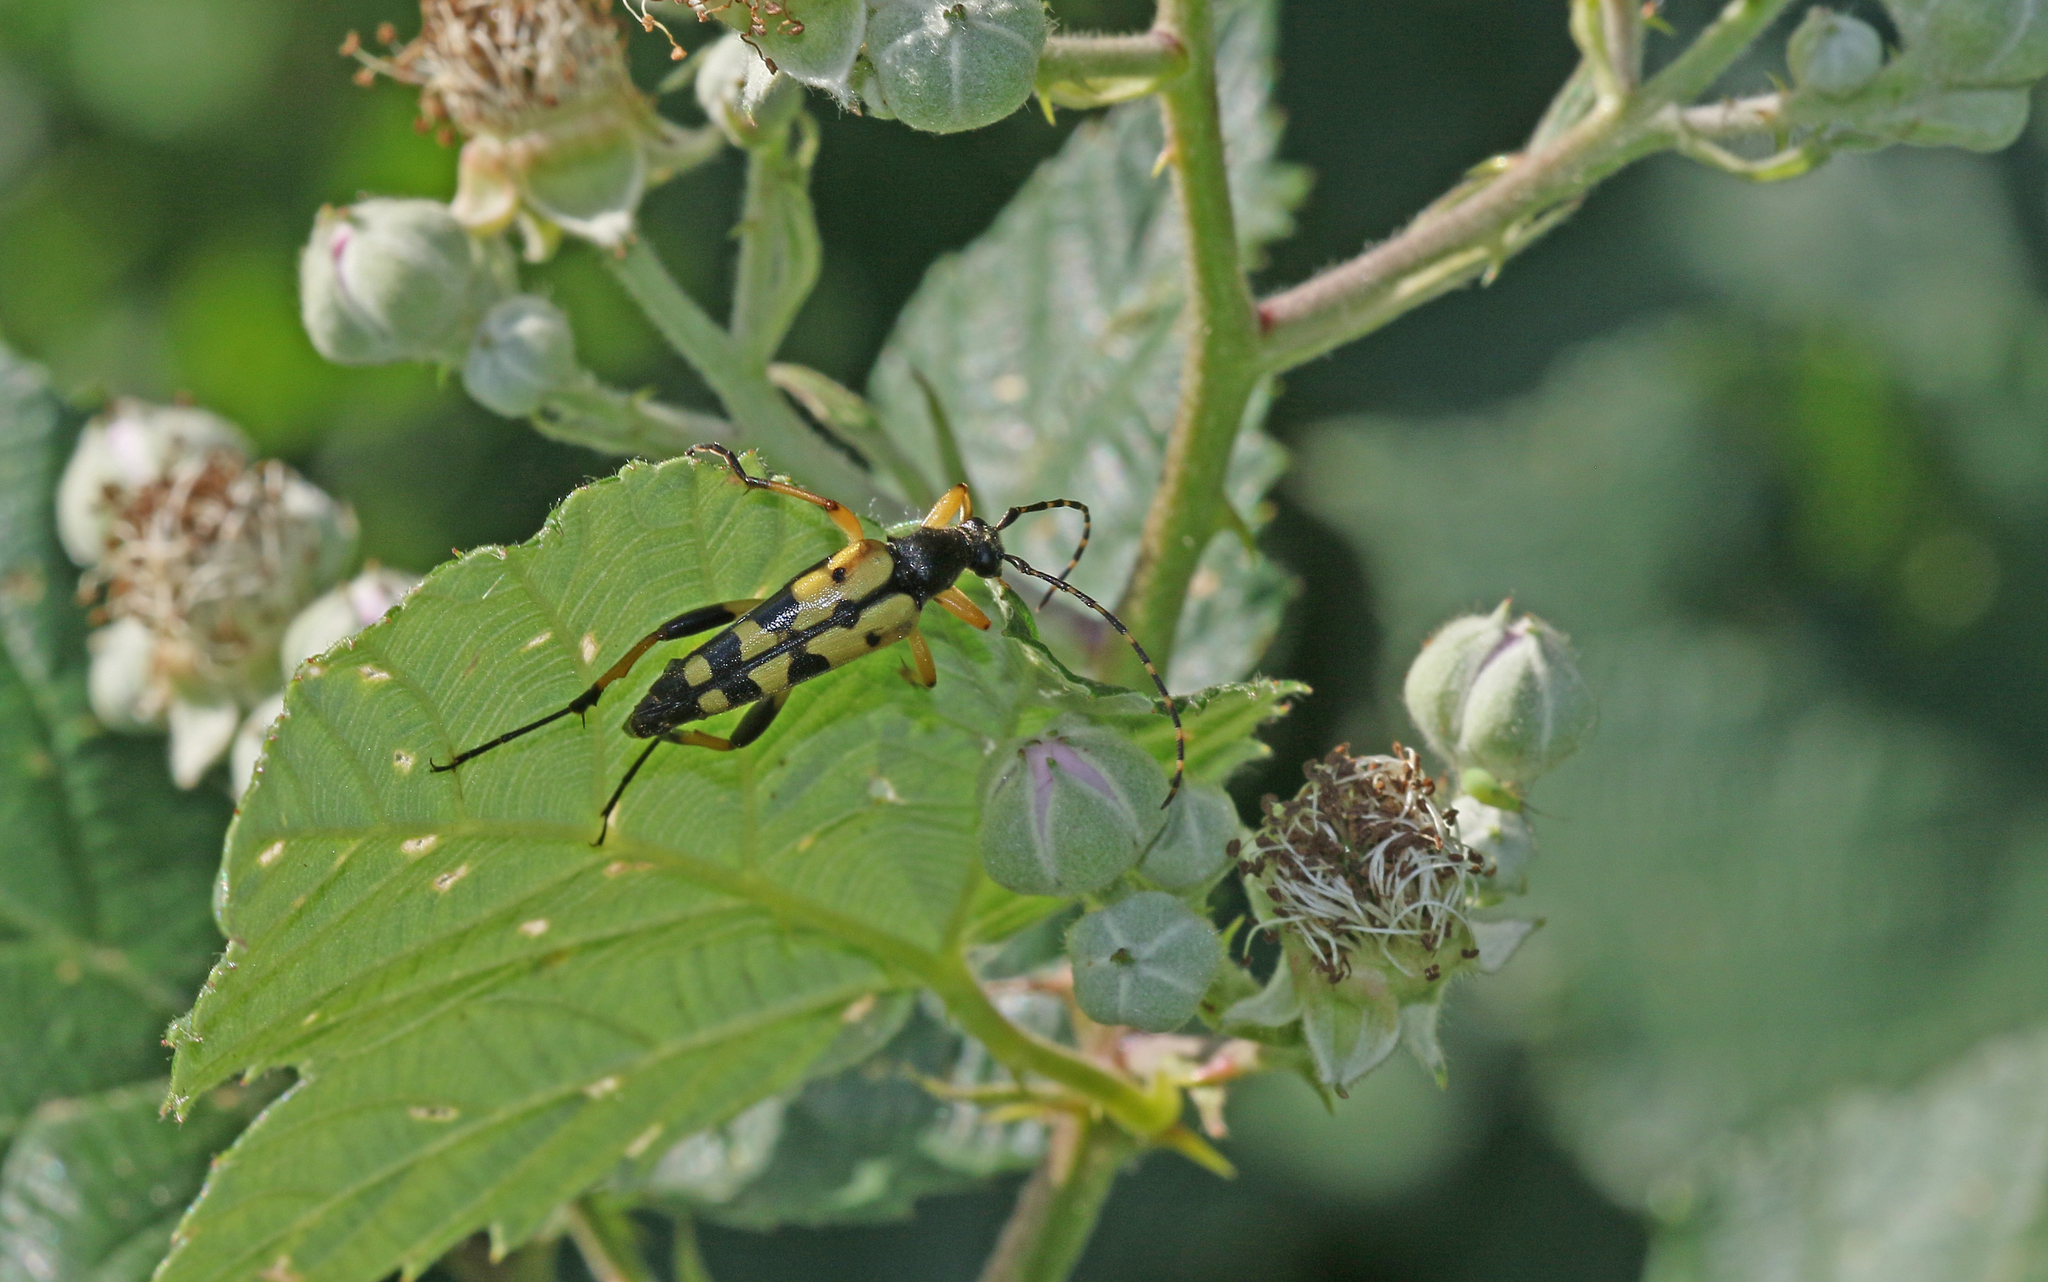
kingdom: Animalia
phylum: Arthropoda
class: Insecta
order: Coleoptera
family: Cerambycidae
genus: Rutpela
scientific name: Rutpela maculata
